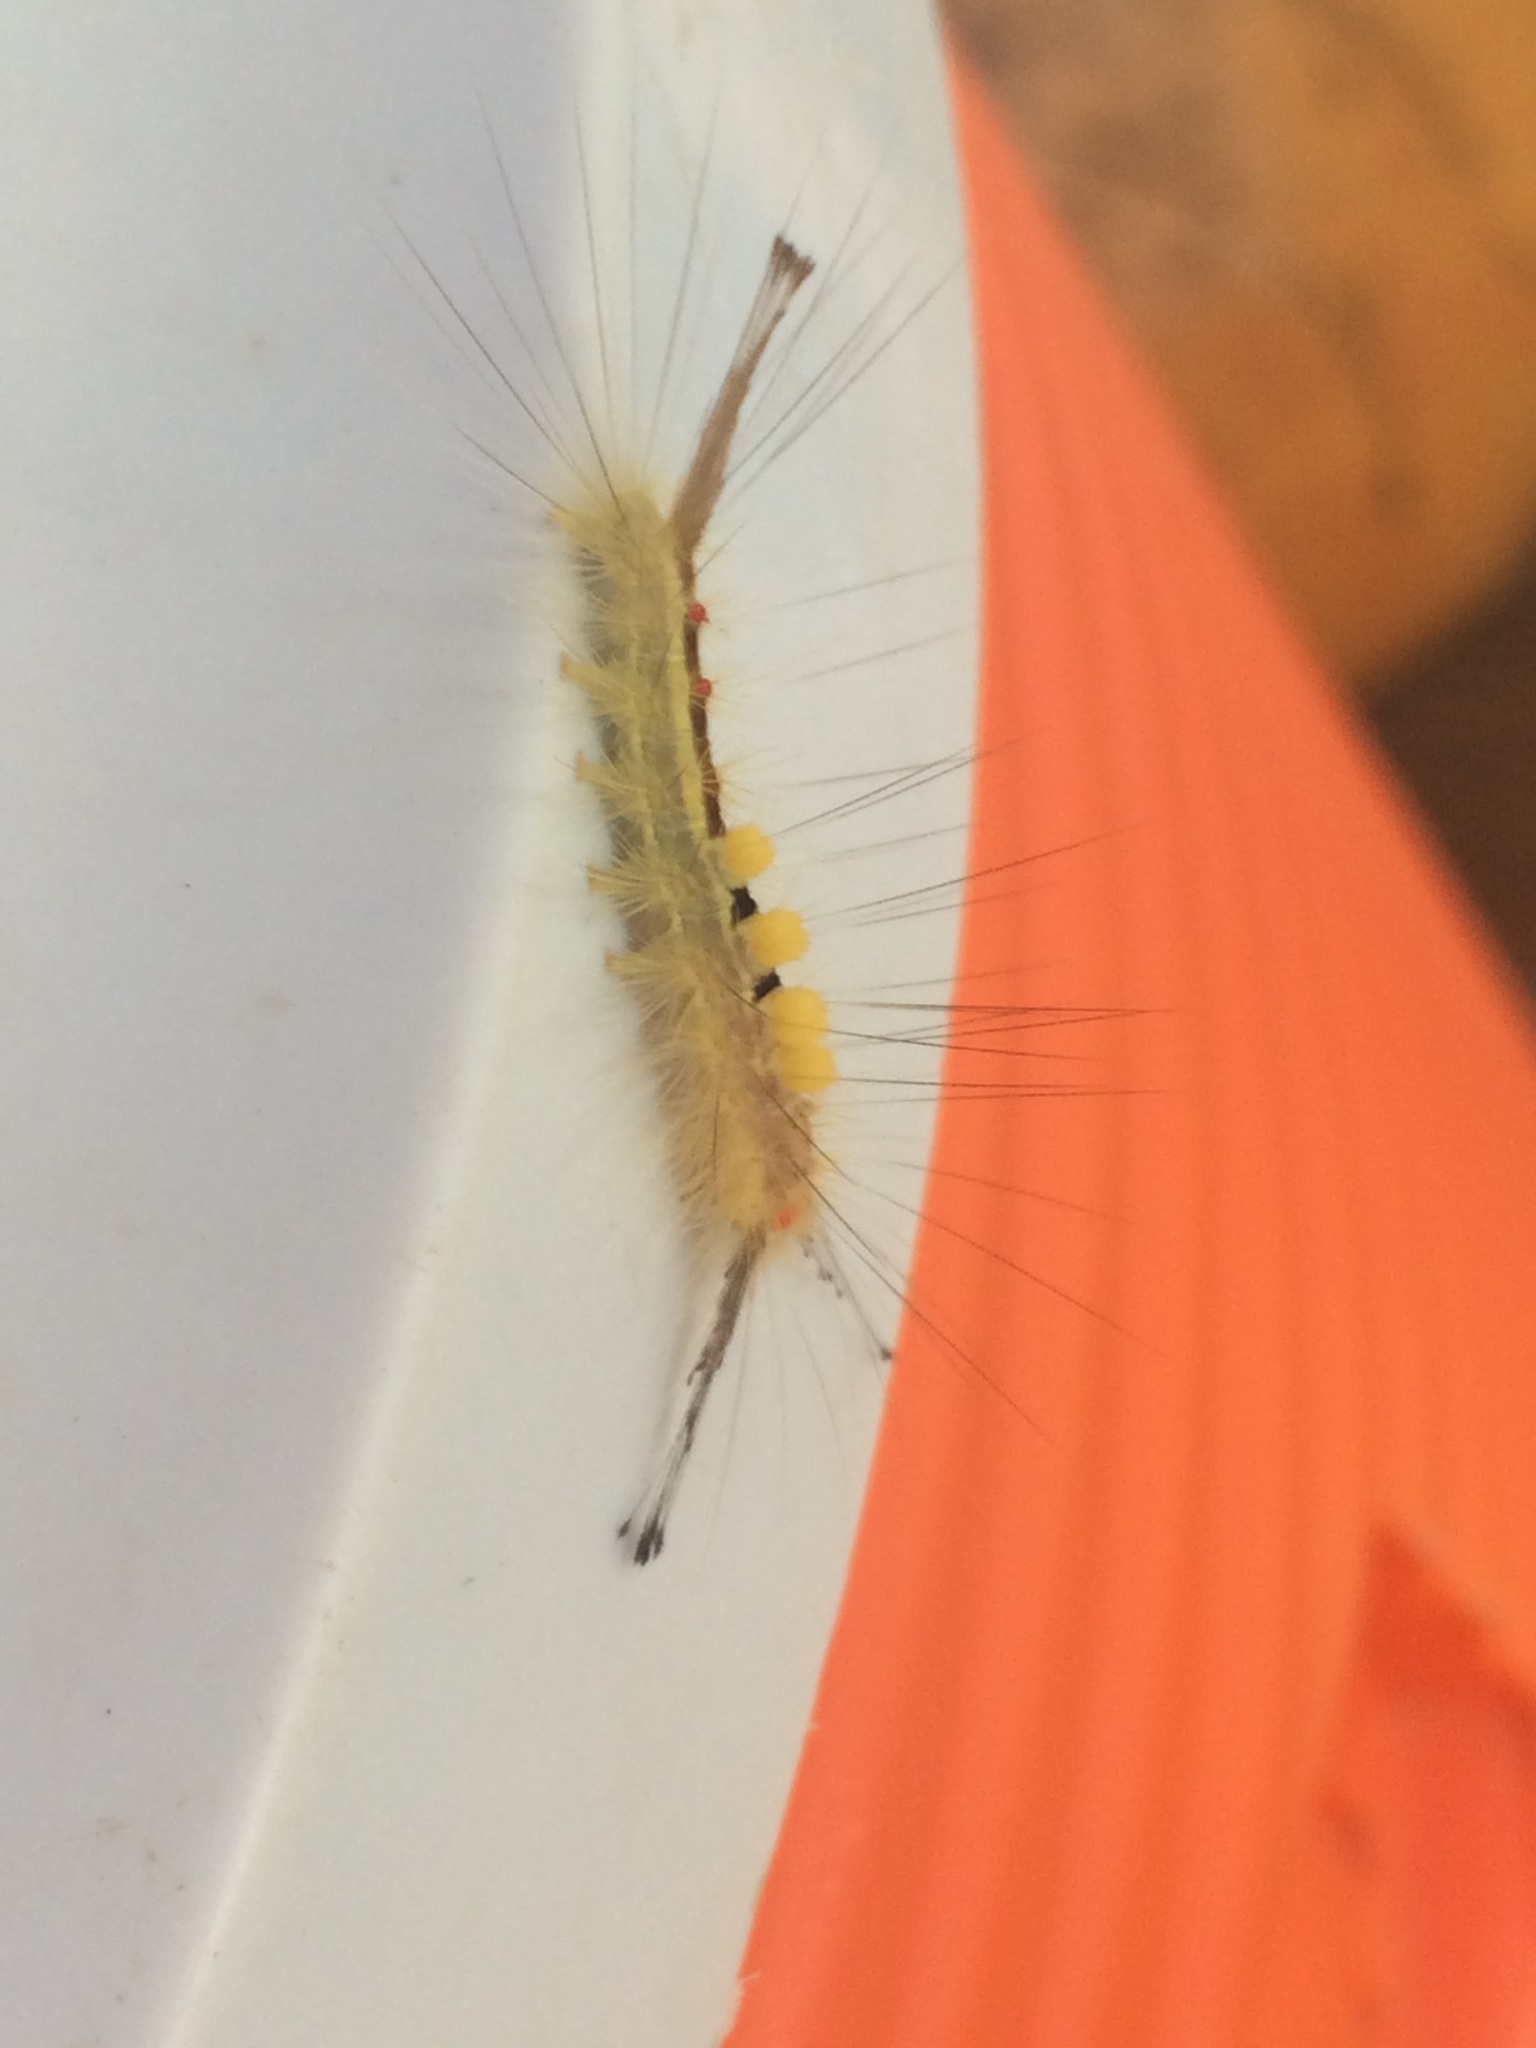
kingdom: Animalia
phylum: Arthropoda
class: Insecta
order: Lepidoptera
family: Erebidae
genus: Orgyia
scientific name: Orgyia leucostigma
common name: White-marked tussock moth
